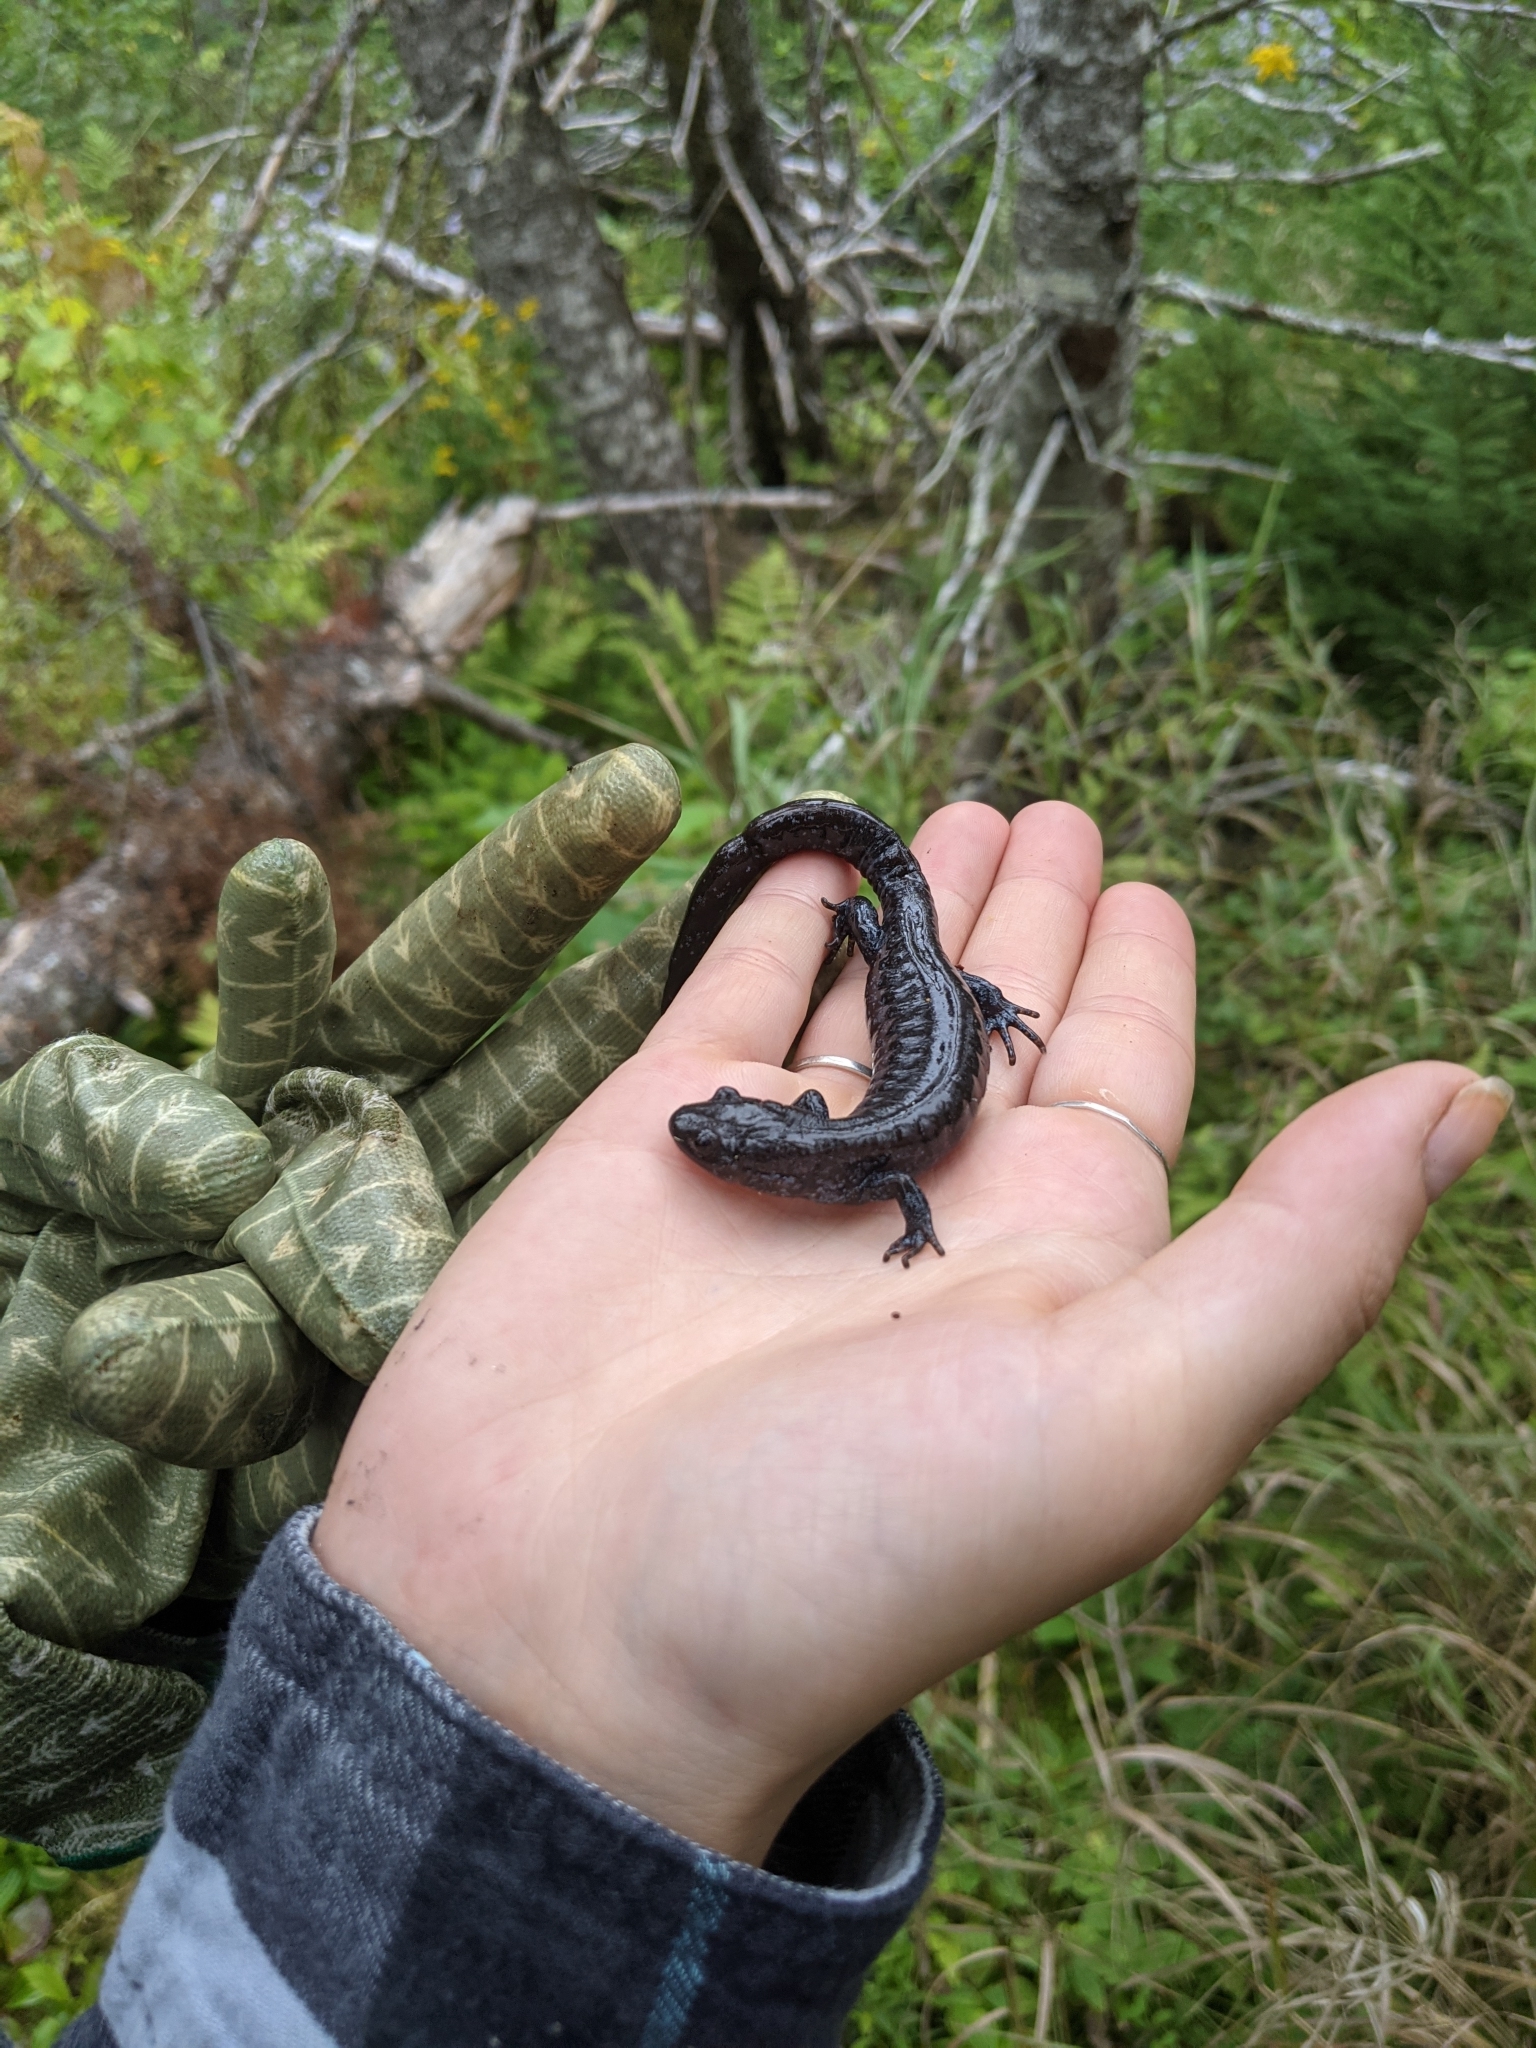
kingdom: Animalia
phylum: Chordata
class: Amphibia
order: Caudata
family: Ambystomatidae
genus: Ambystoma
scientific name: Ambystoma laterale
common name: Blue-spotted salamander
